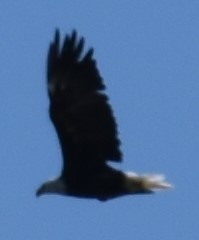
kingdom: Animalia
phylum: Chordata
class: Aves
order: Accipitriformes
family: Accipitridae
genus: Haliaeetus
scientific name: Haliaeetus leucocephalus
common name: Bald eagle
